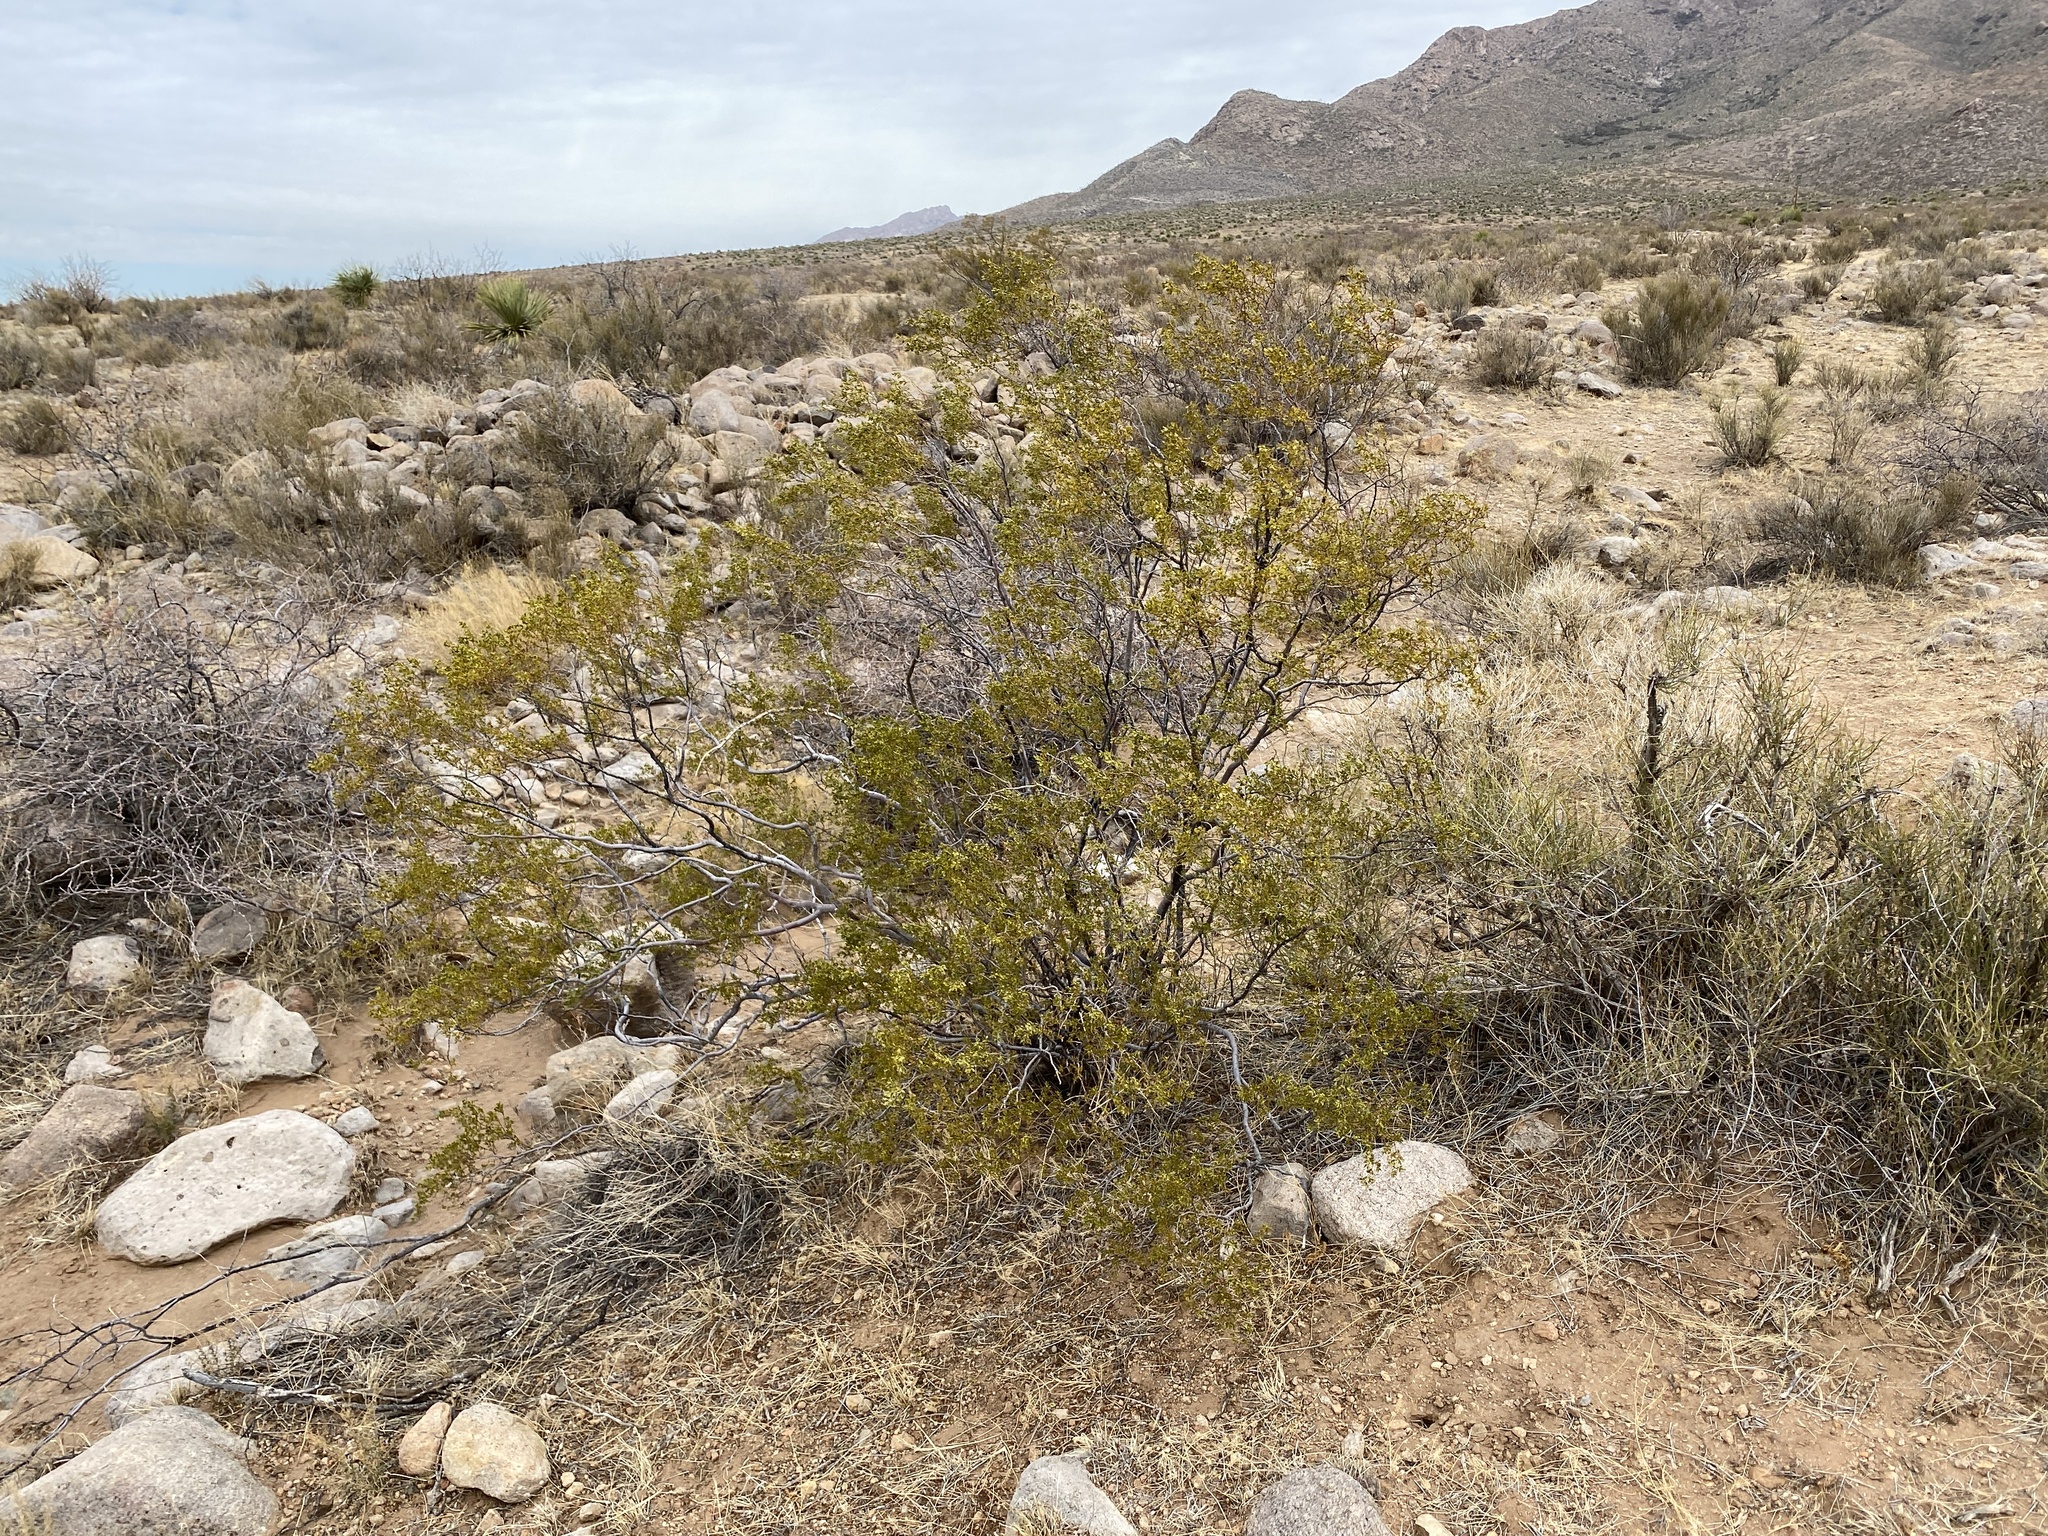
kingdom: Plantae
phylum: Tracheophyta
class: Magnoliopsida
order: Zygophyllales
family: Zygophyllaceae
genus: Larrea
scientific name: Larrea tridentata
